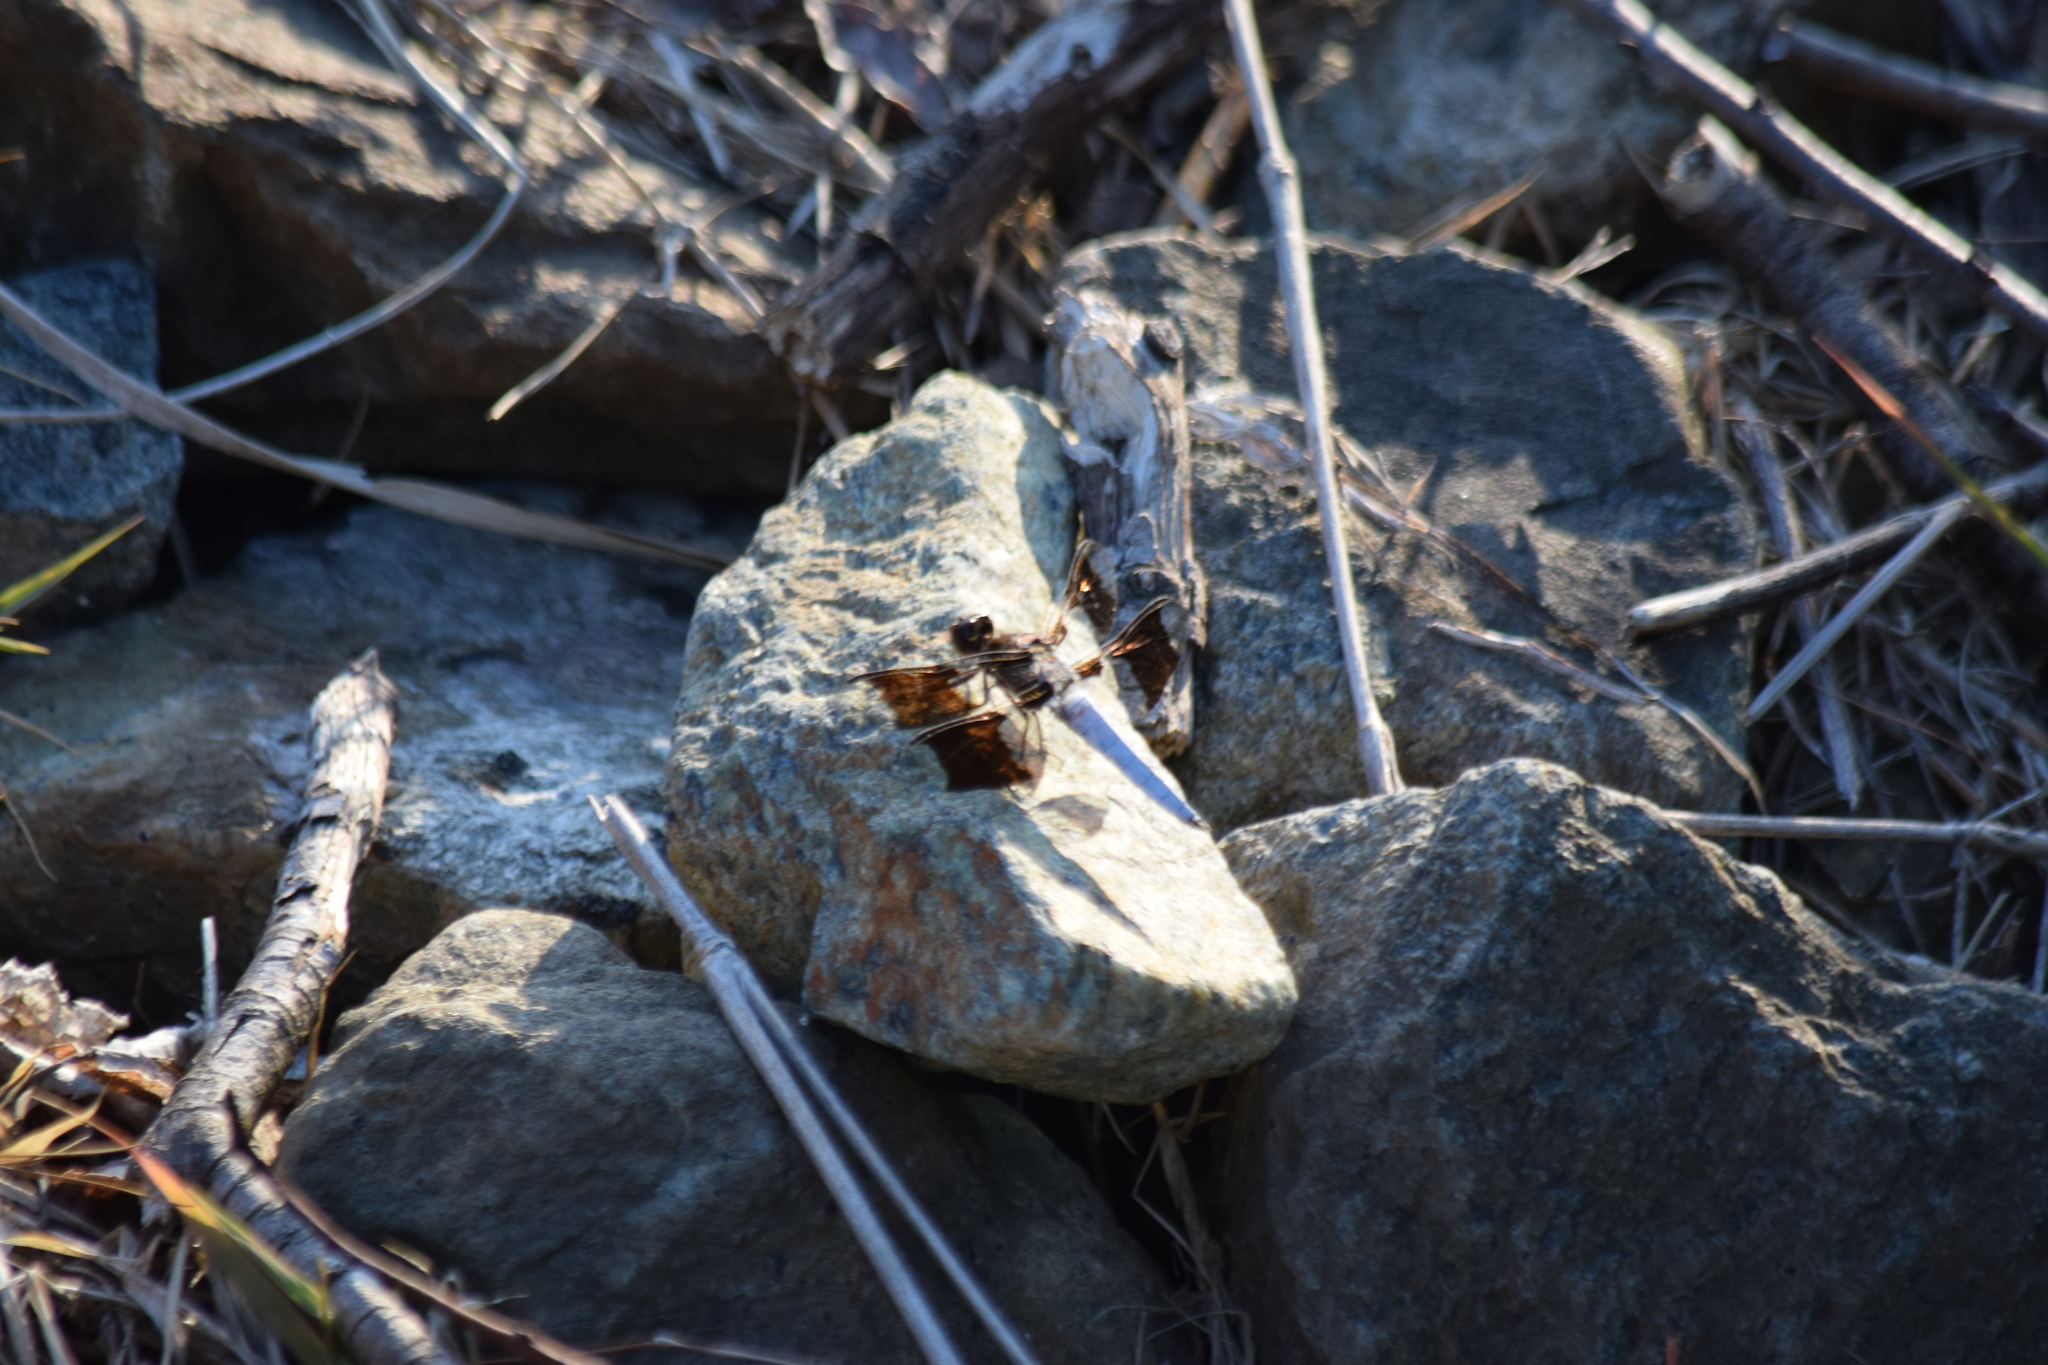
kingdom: Animalia
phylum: Arthropoda
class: Insecta
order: Odonata
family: Libellulidae
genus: Plathemis
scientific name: Plathemis lydia
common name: Common whitetail
